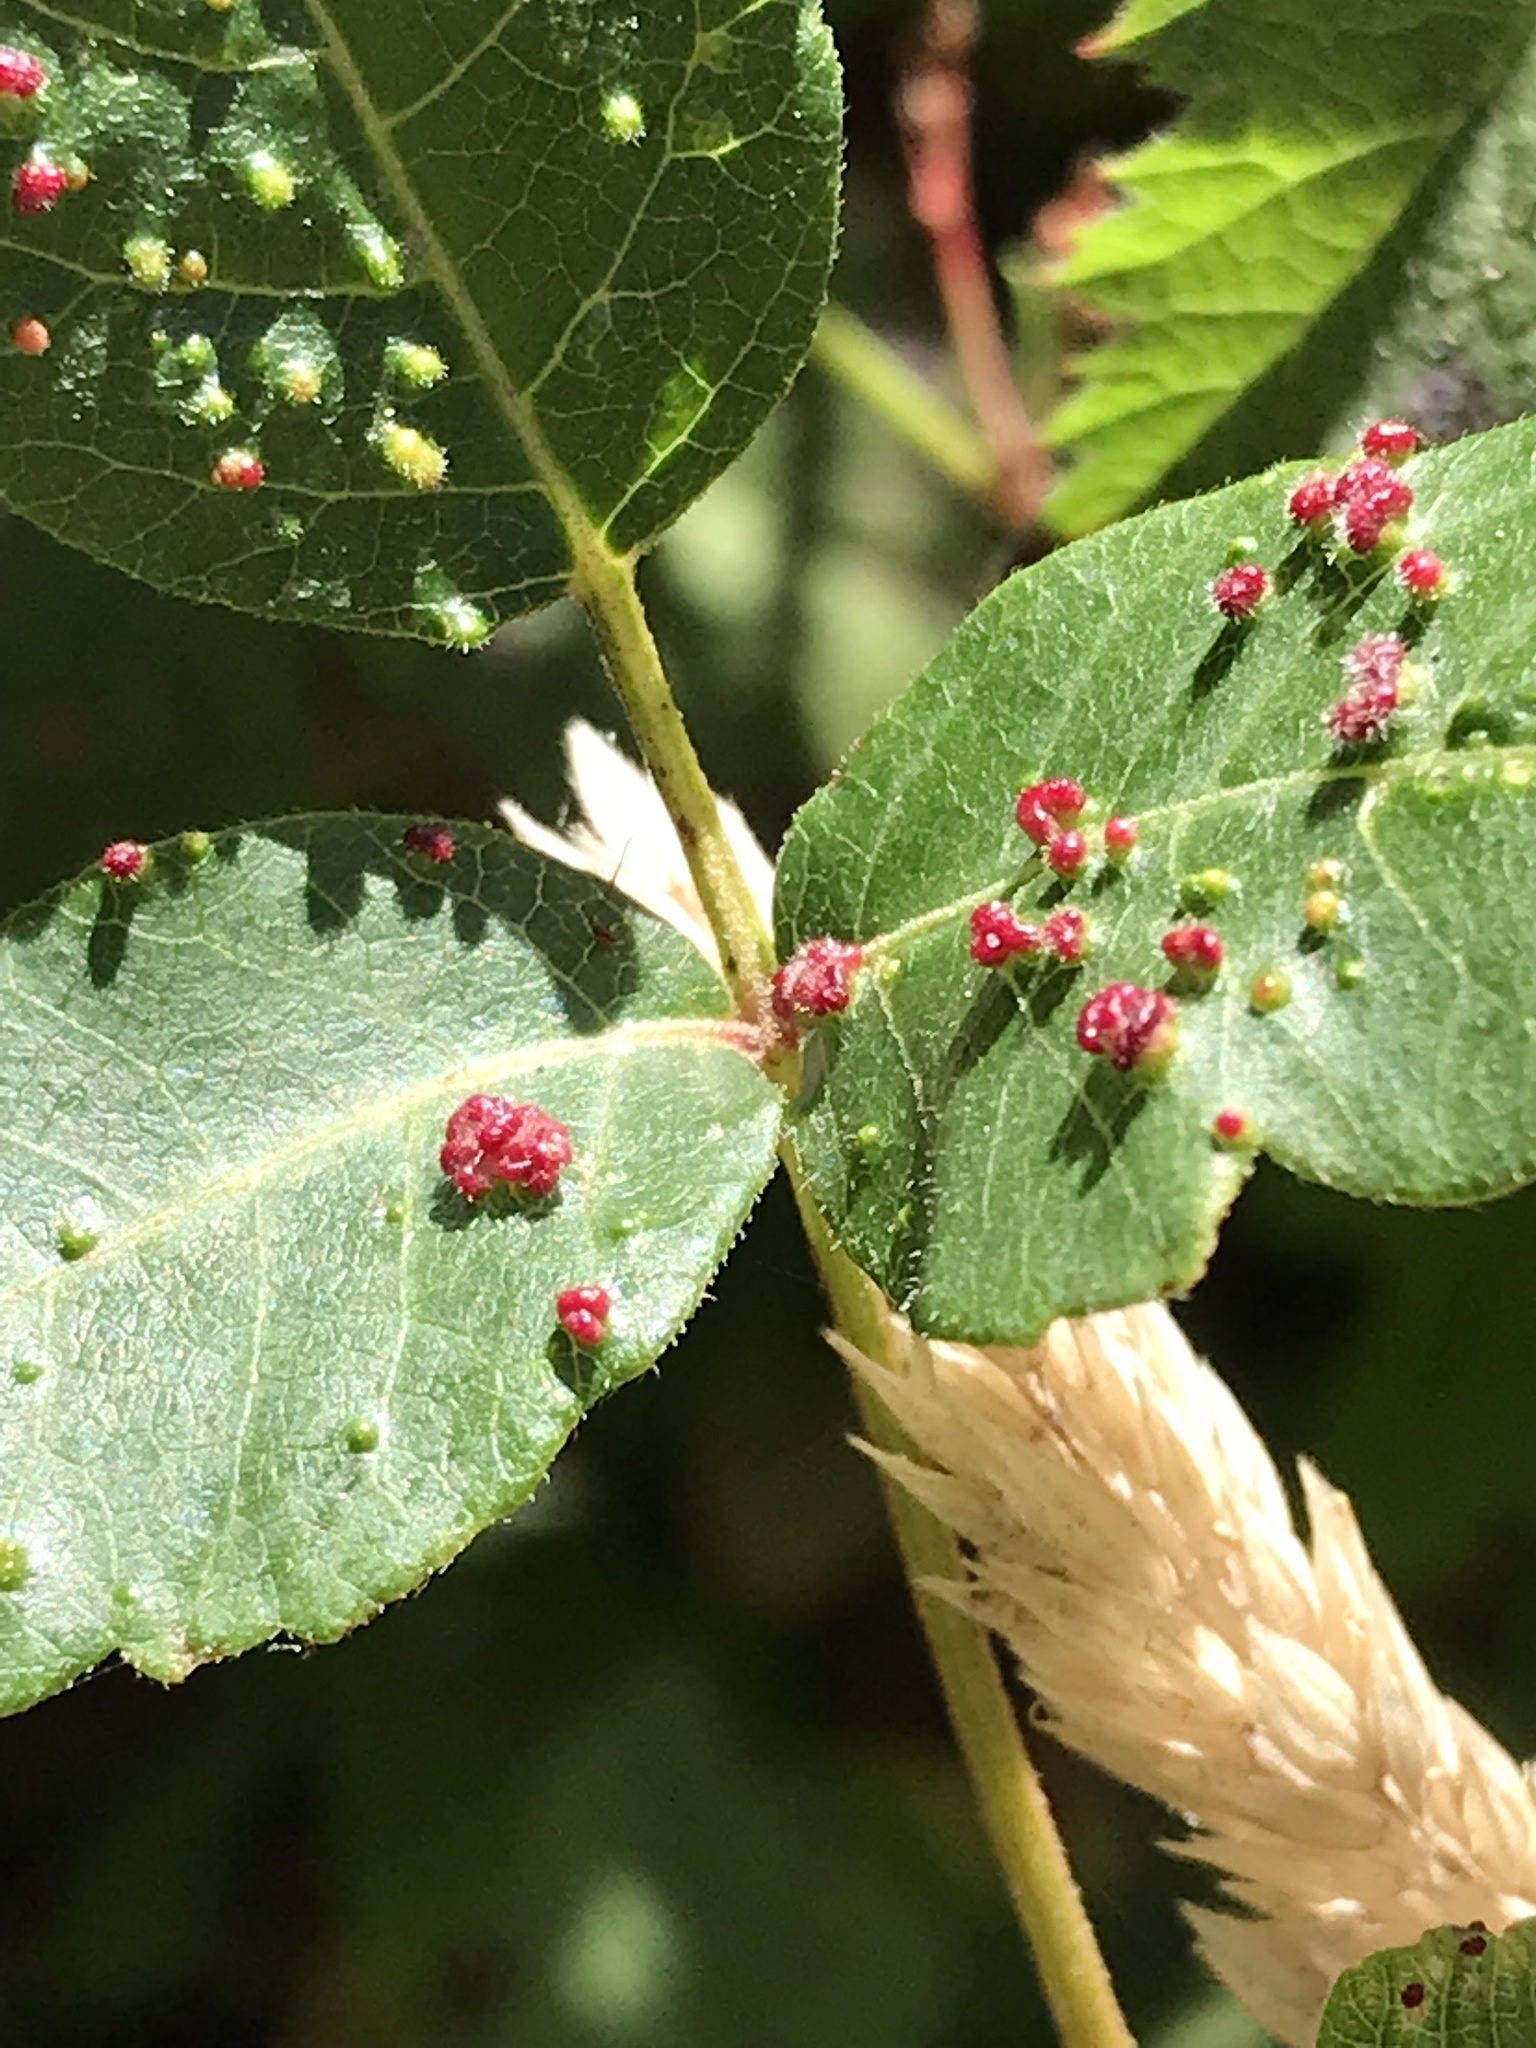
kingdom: Animalia
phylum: Arthropoda
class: Arachnida
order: Trombidiformes
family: Eriophyidae
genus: Aculops
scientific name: Aculops
